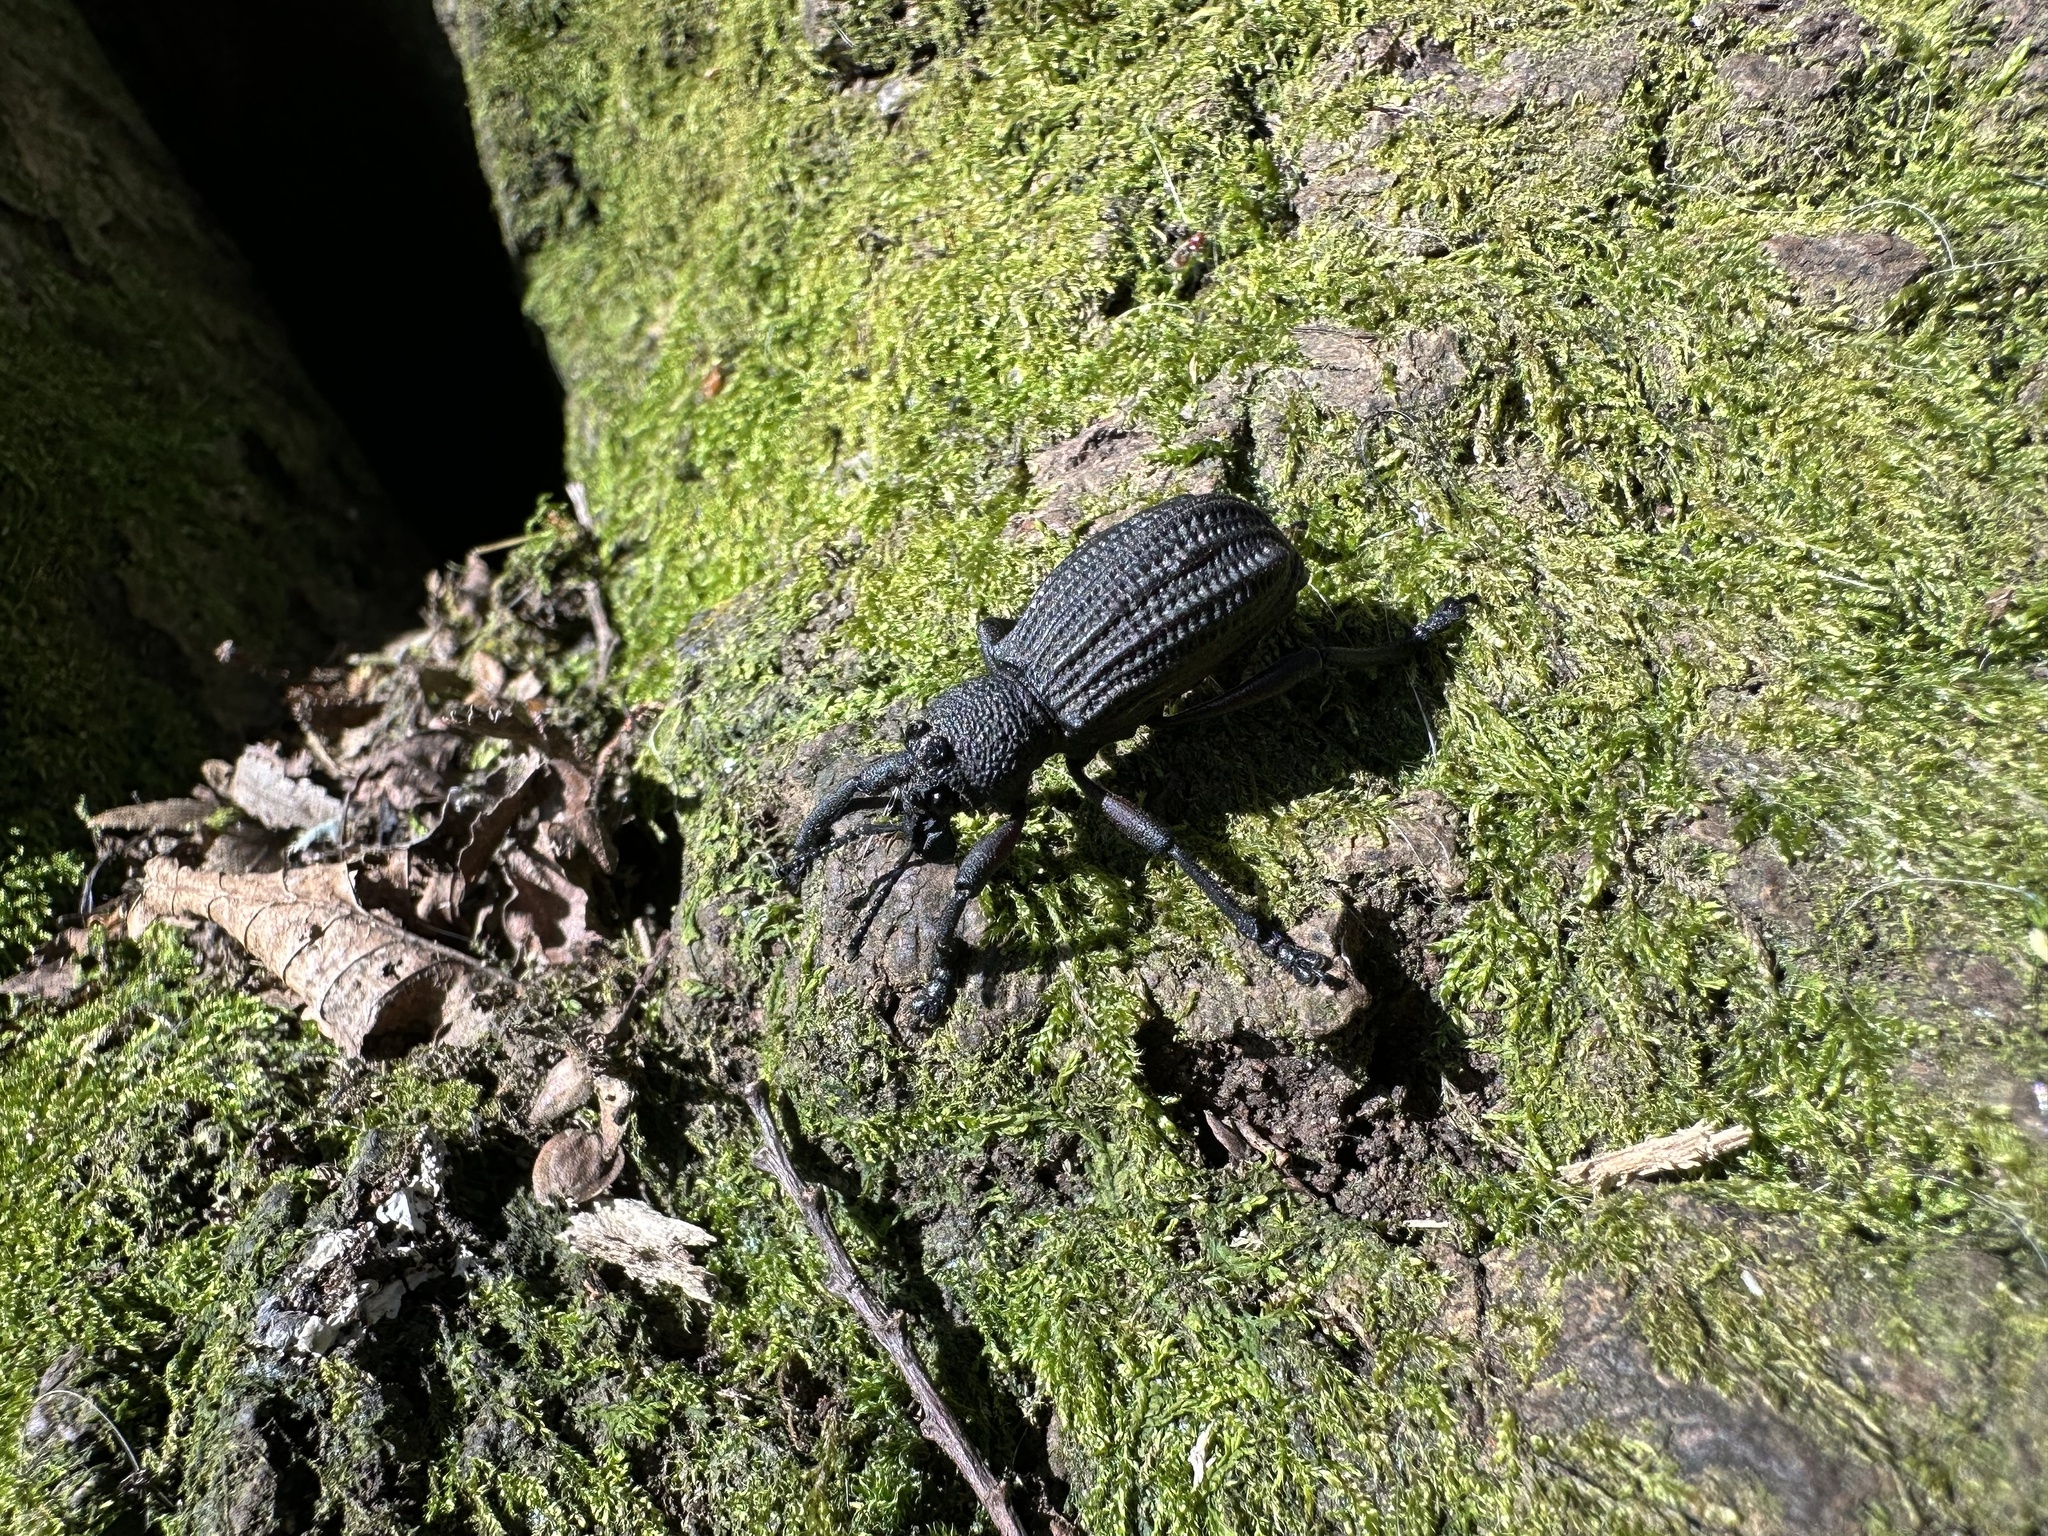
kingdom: Animalia
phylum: Arthropoda
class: Insecta
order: Coleoptera
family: Curculionidae
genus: Aegorhinus
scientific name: Aegorhinus
